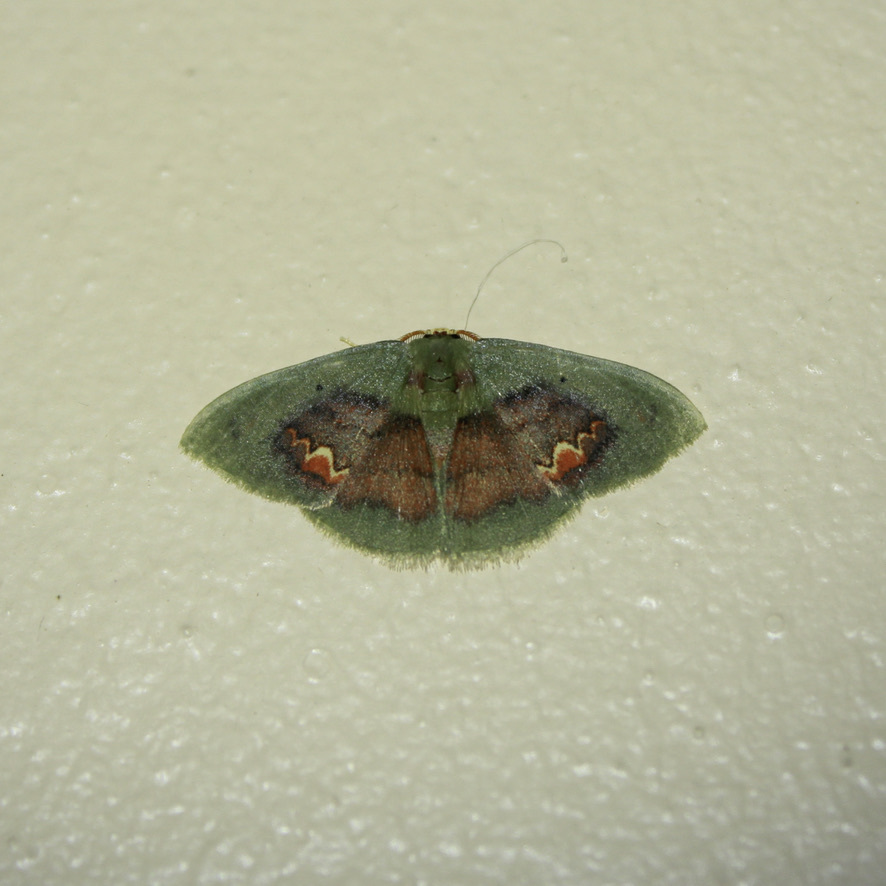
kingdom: Animalia
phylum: Arthropoda
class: Insecta
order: Lepidoptera
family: Geometridae
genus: Pyrochlora
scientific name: Pyrochlora rhanis
